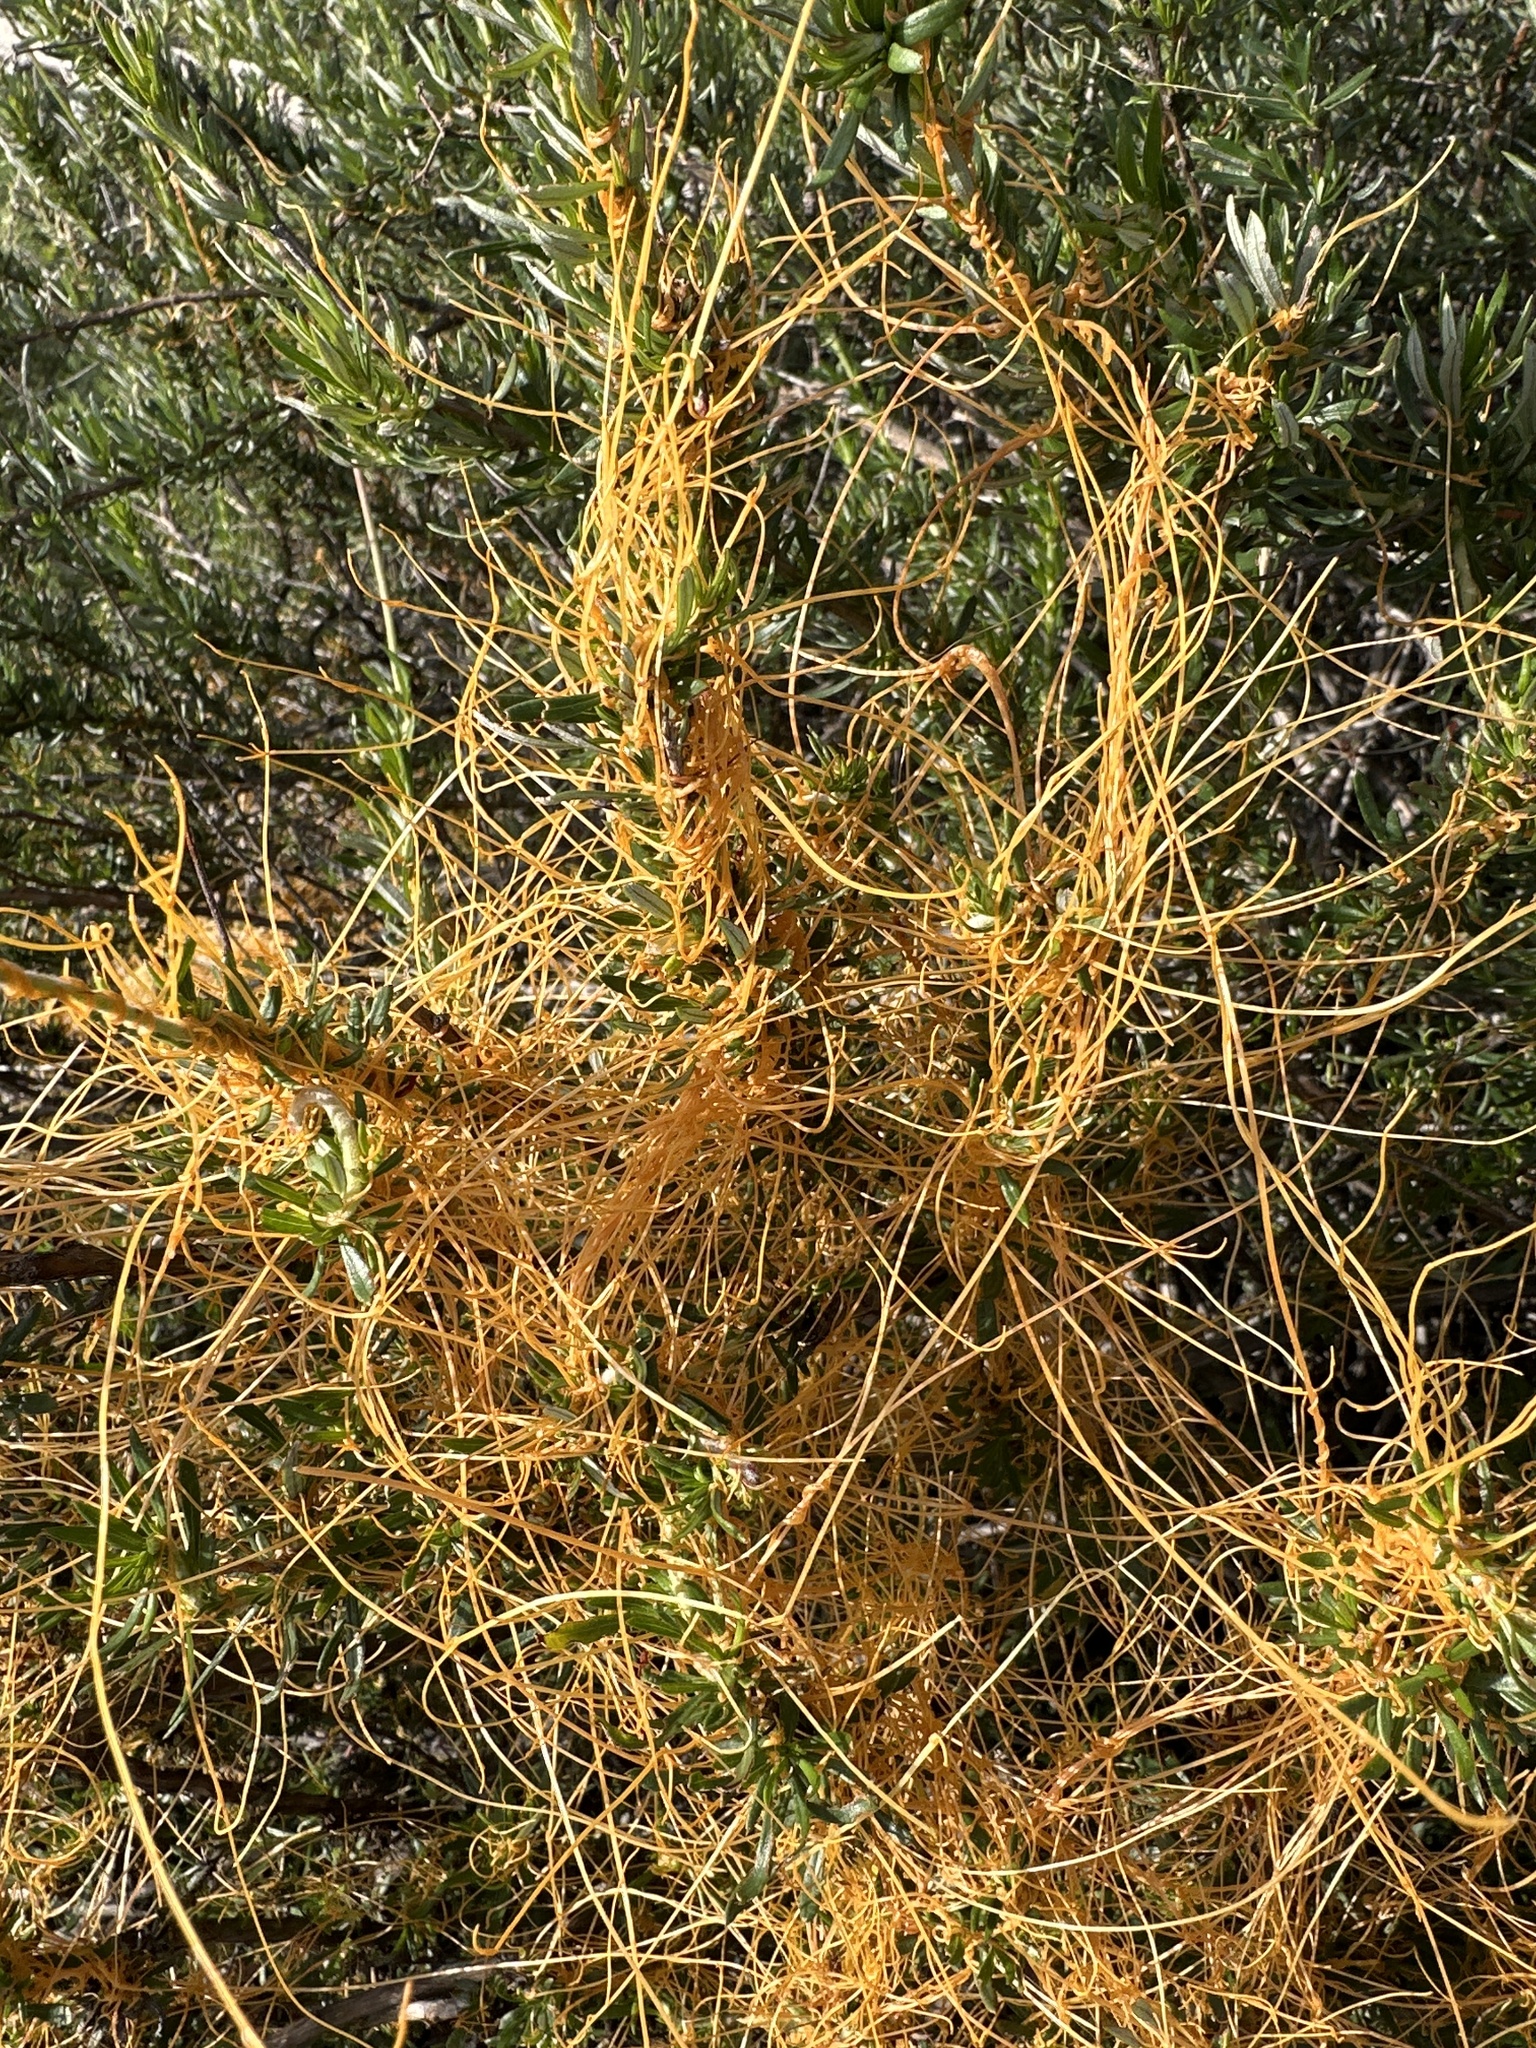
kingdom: Plantae
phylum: Tracheophyta
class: Magnoliopsida
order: Solanales
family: Convolvulaceae
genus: Cuscuta
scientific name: Cuscuta californica
